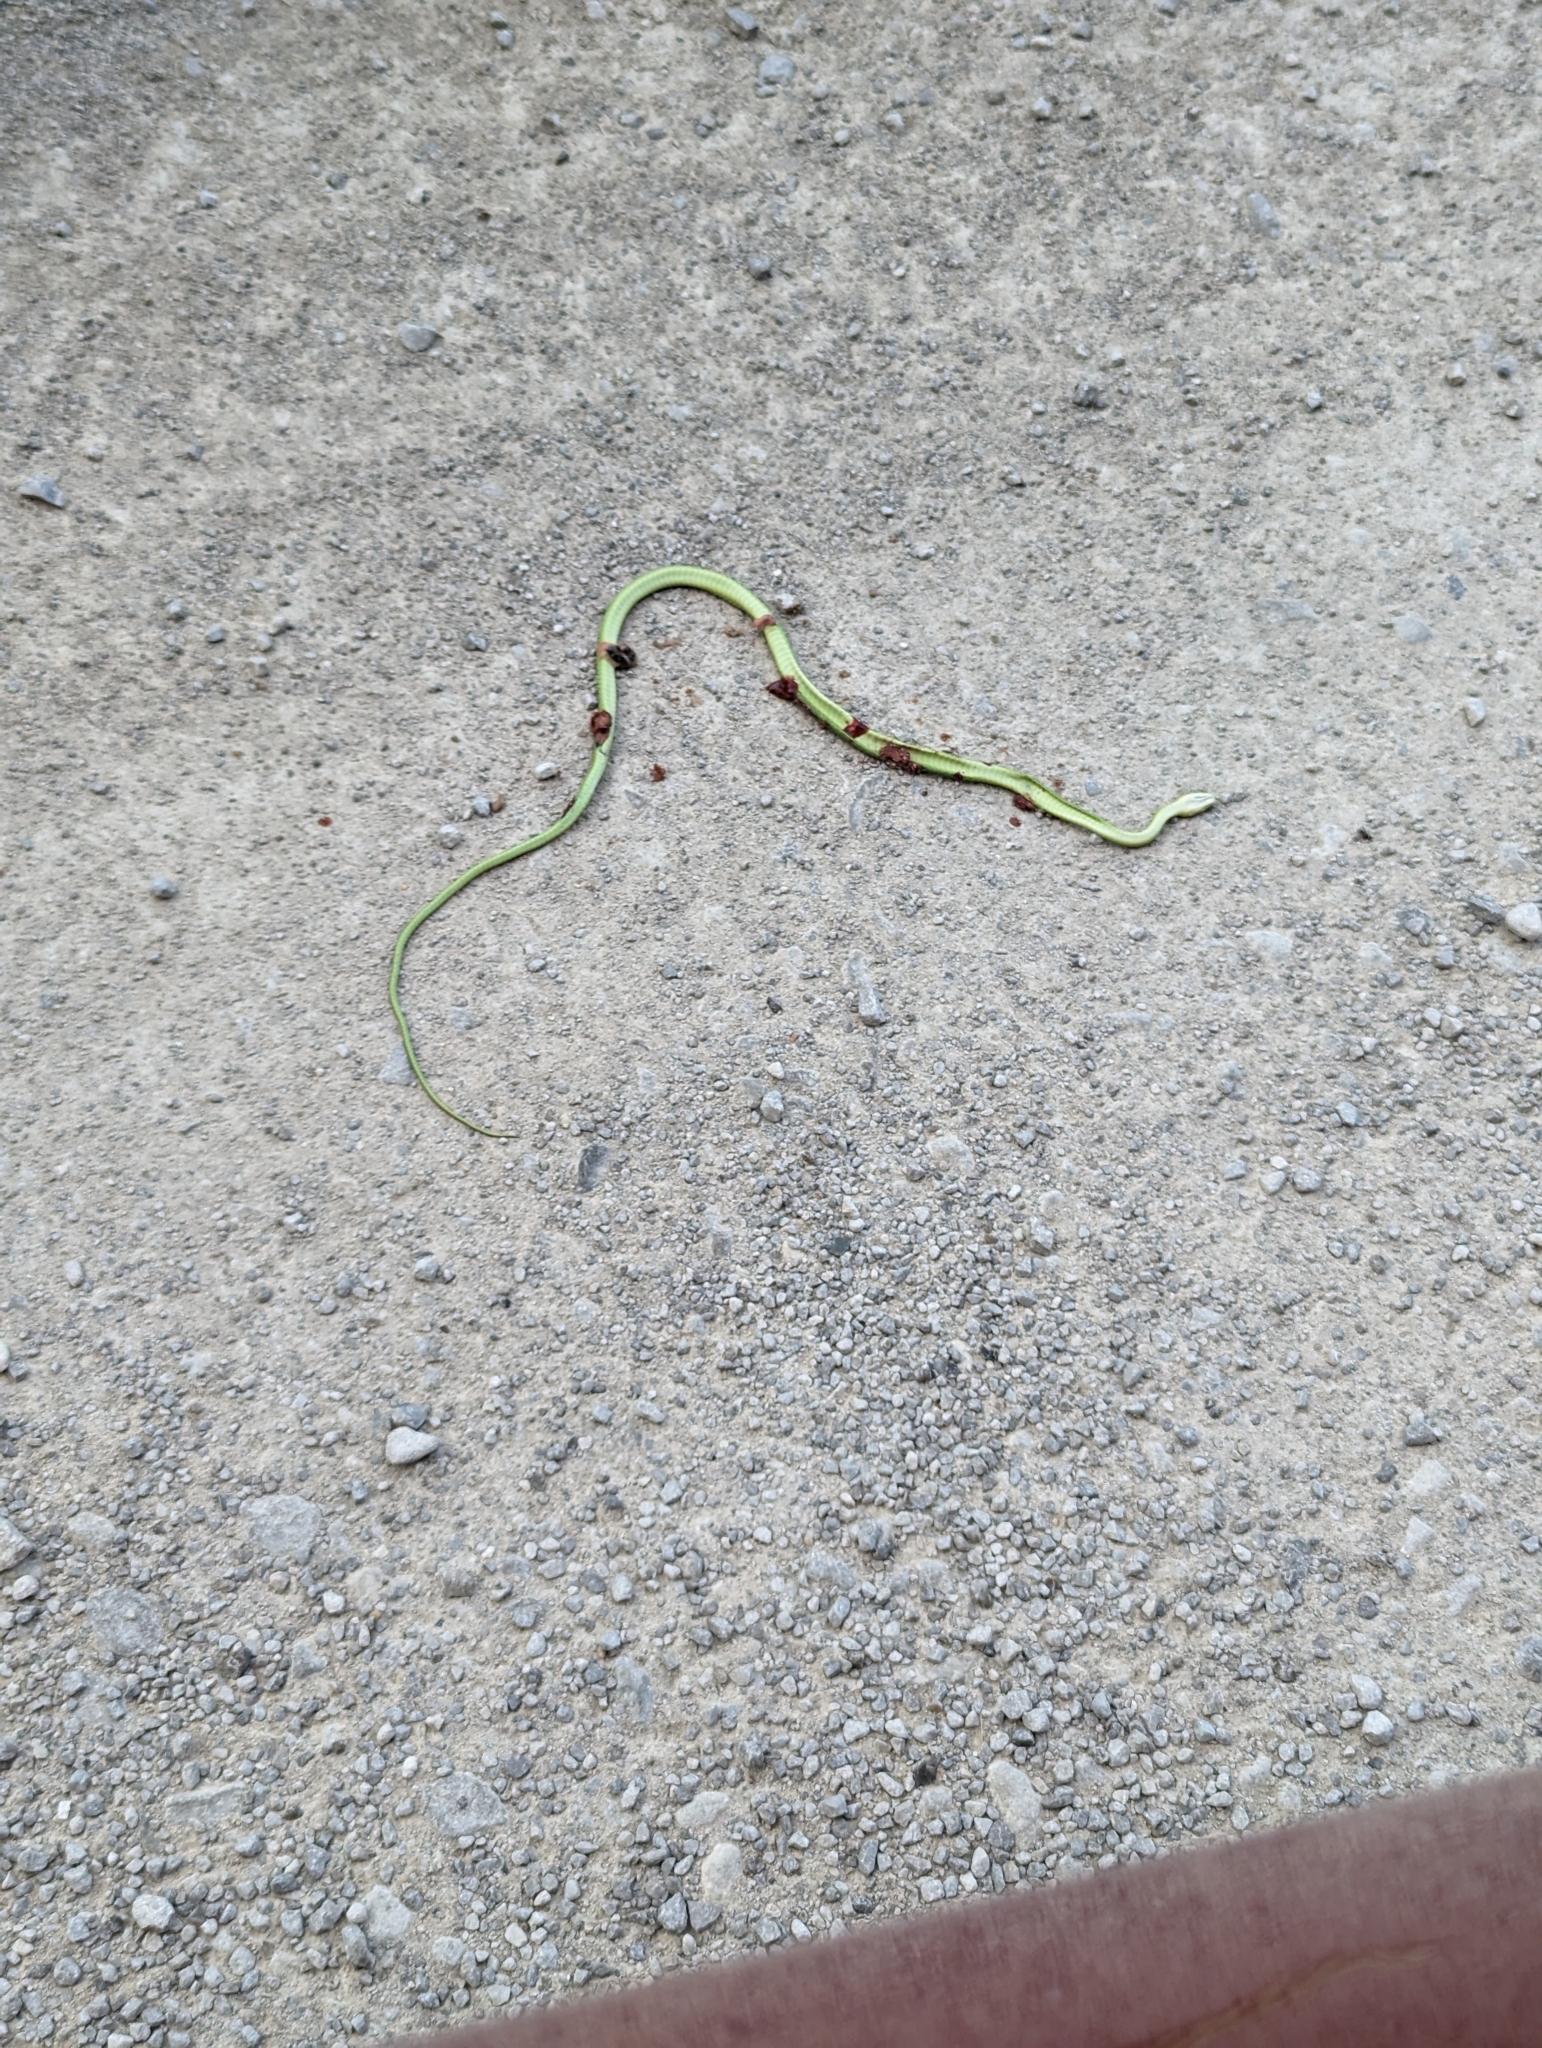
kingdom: Animalia
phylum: Chordata
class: Squamata
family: Colubridae
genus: Opheodrys
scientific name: Opheodrys aestivus
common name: Rough greensnake
